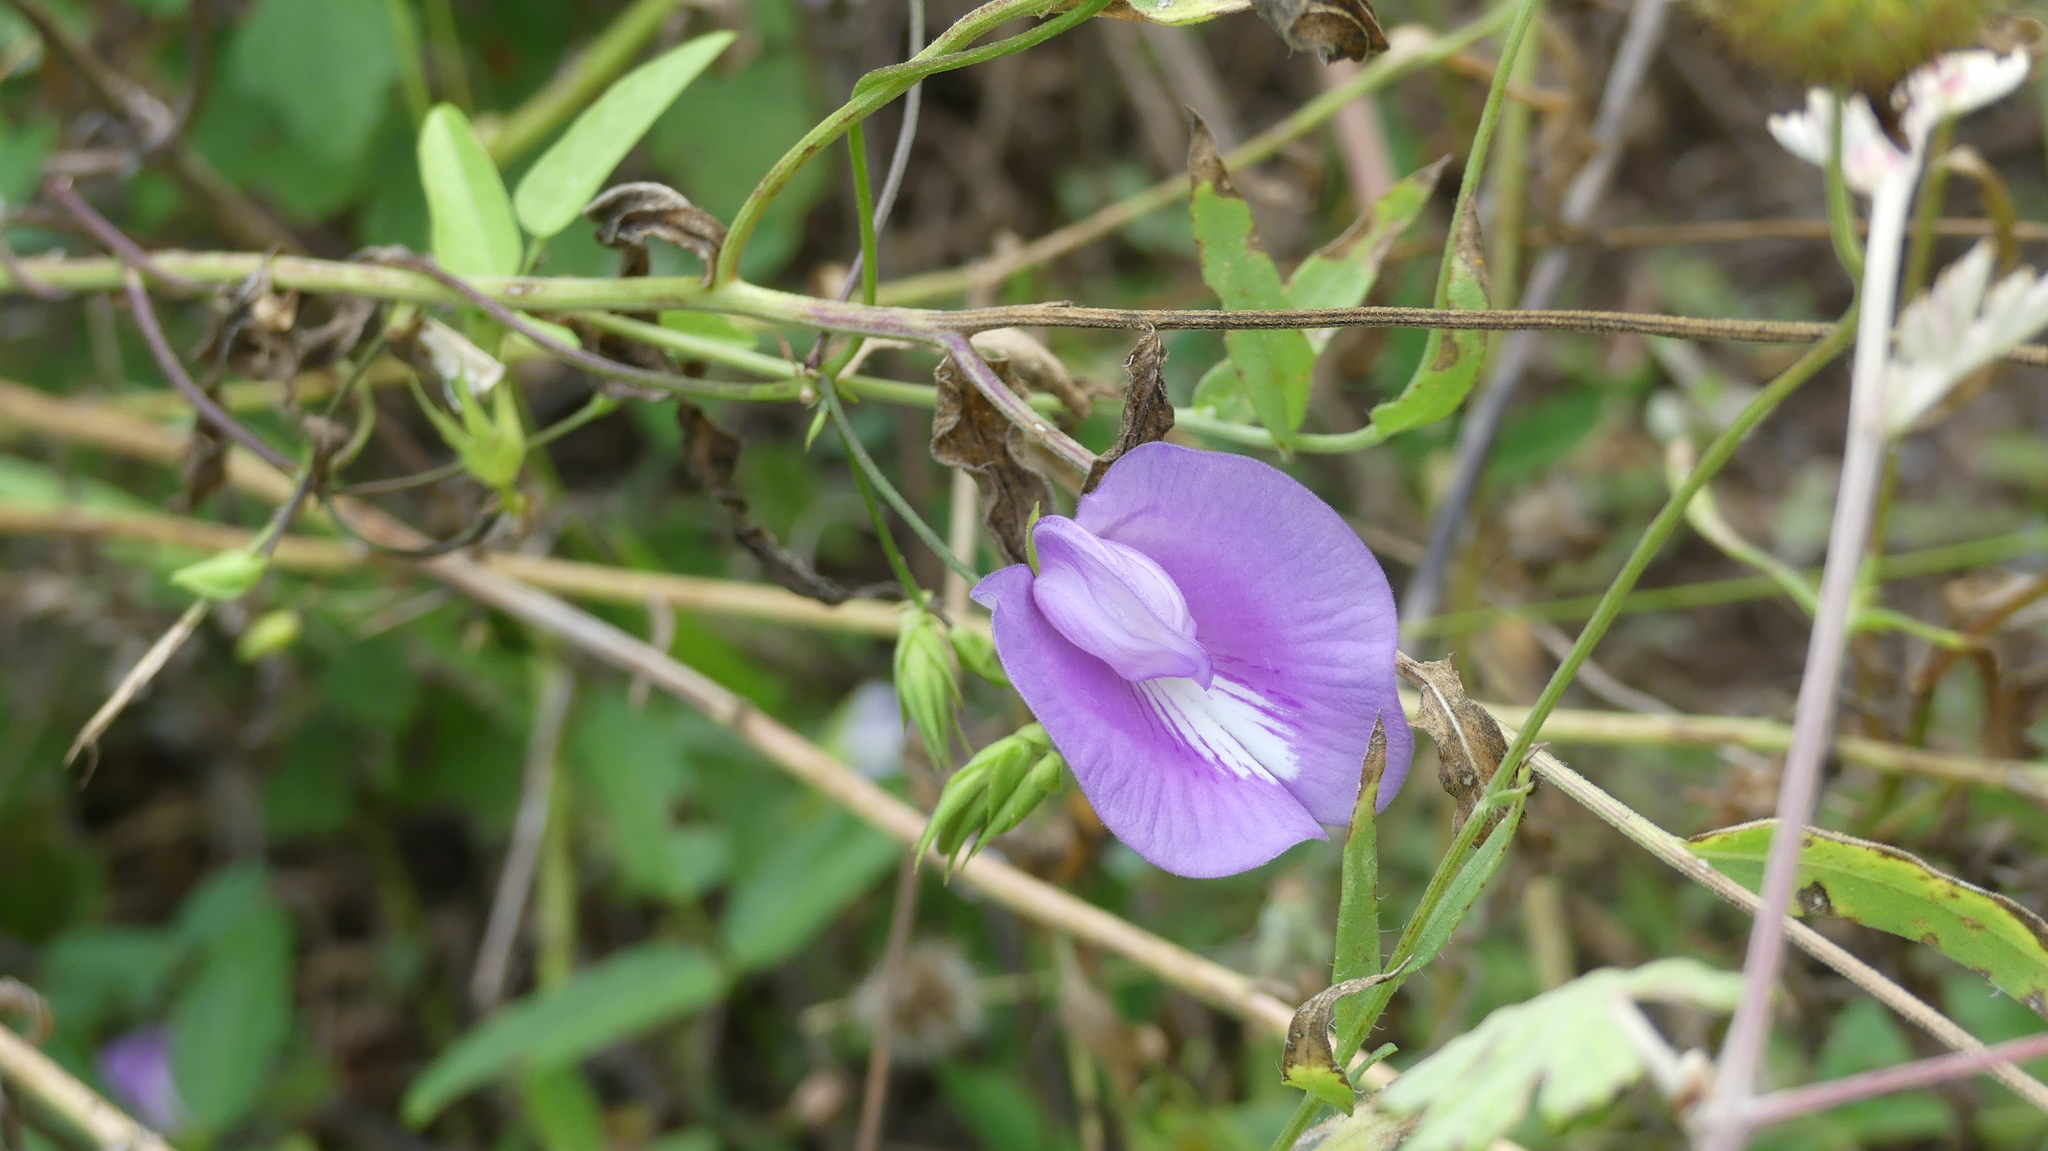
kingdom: Plantae
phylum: Tracheophyta
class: Magnoliopsida
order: Fabales
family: Fabaceae
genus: Centrosema
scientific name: Centrosema virginianum
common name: Butterfly-pea
